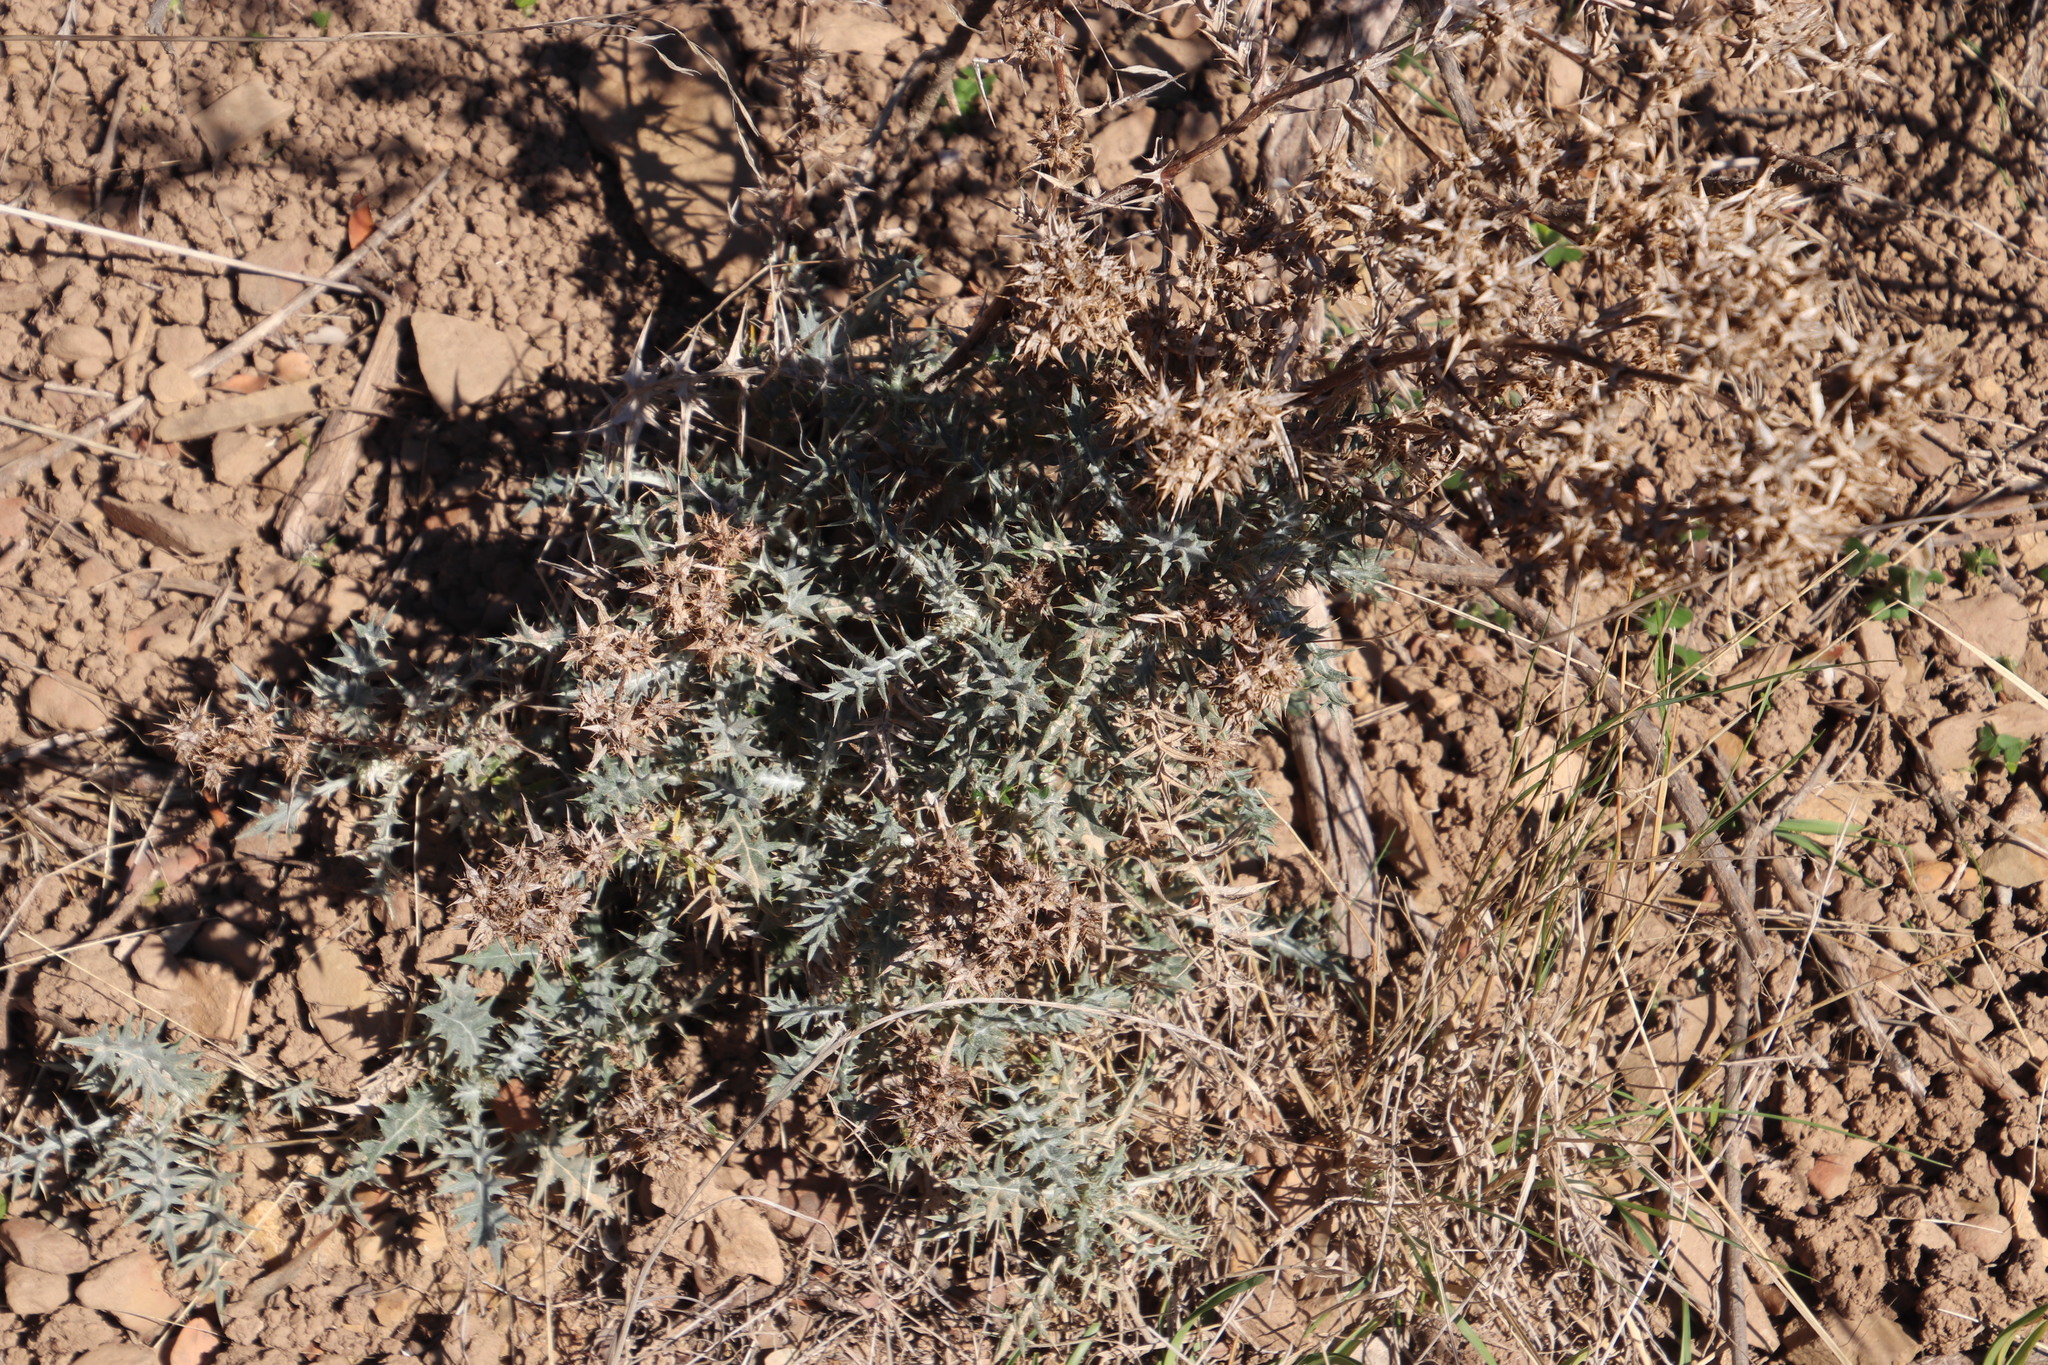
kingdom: Plantae
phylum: Tracheophyta
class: Magnoliopsida
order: Asterales
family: Asteraceae
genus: Berkheya
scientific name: Berkheya rigida
